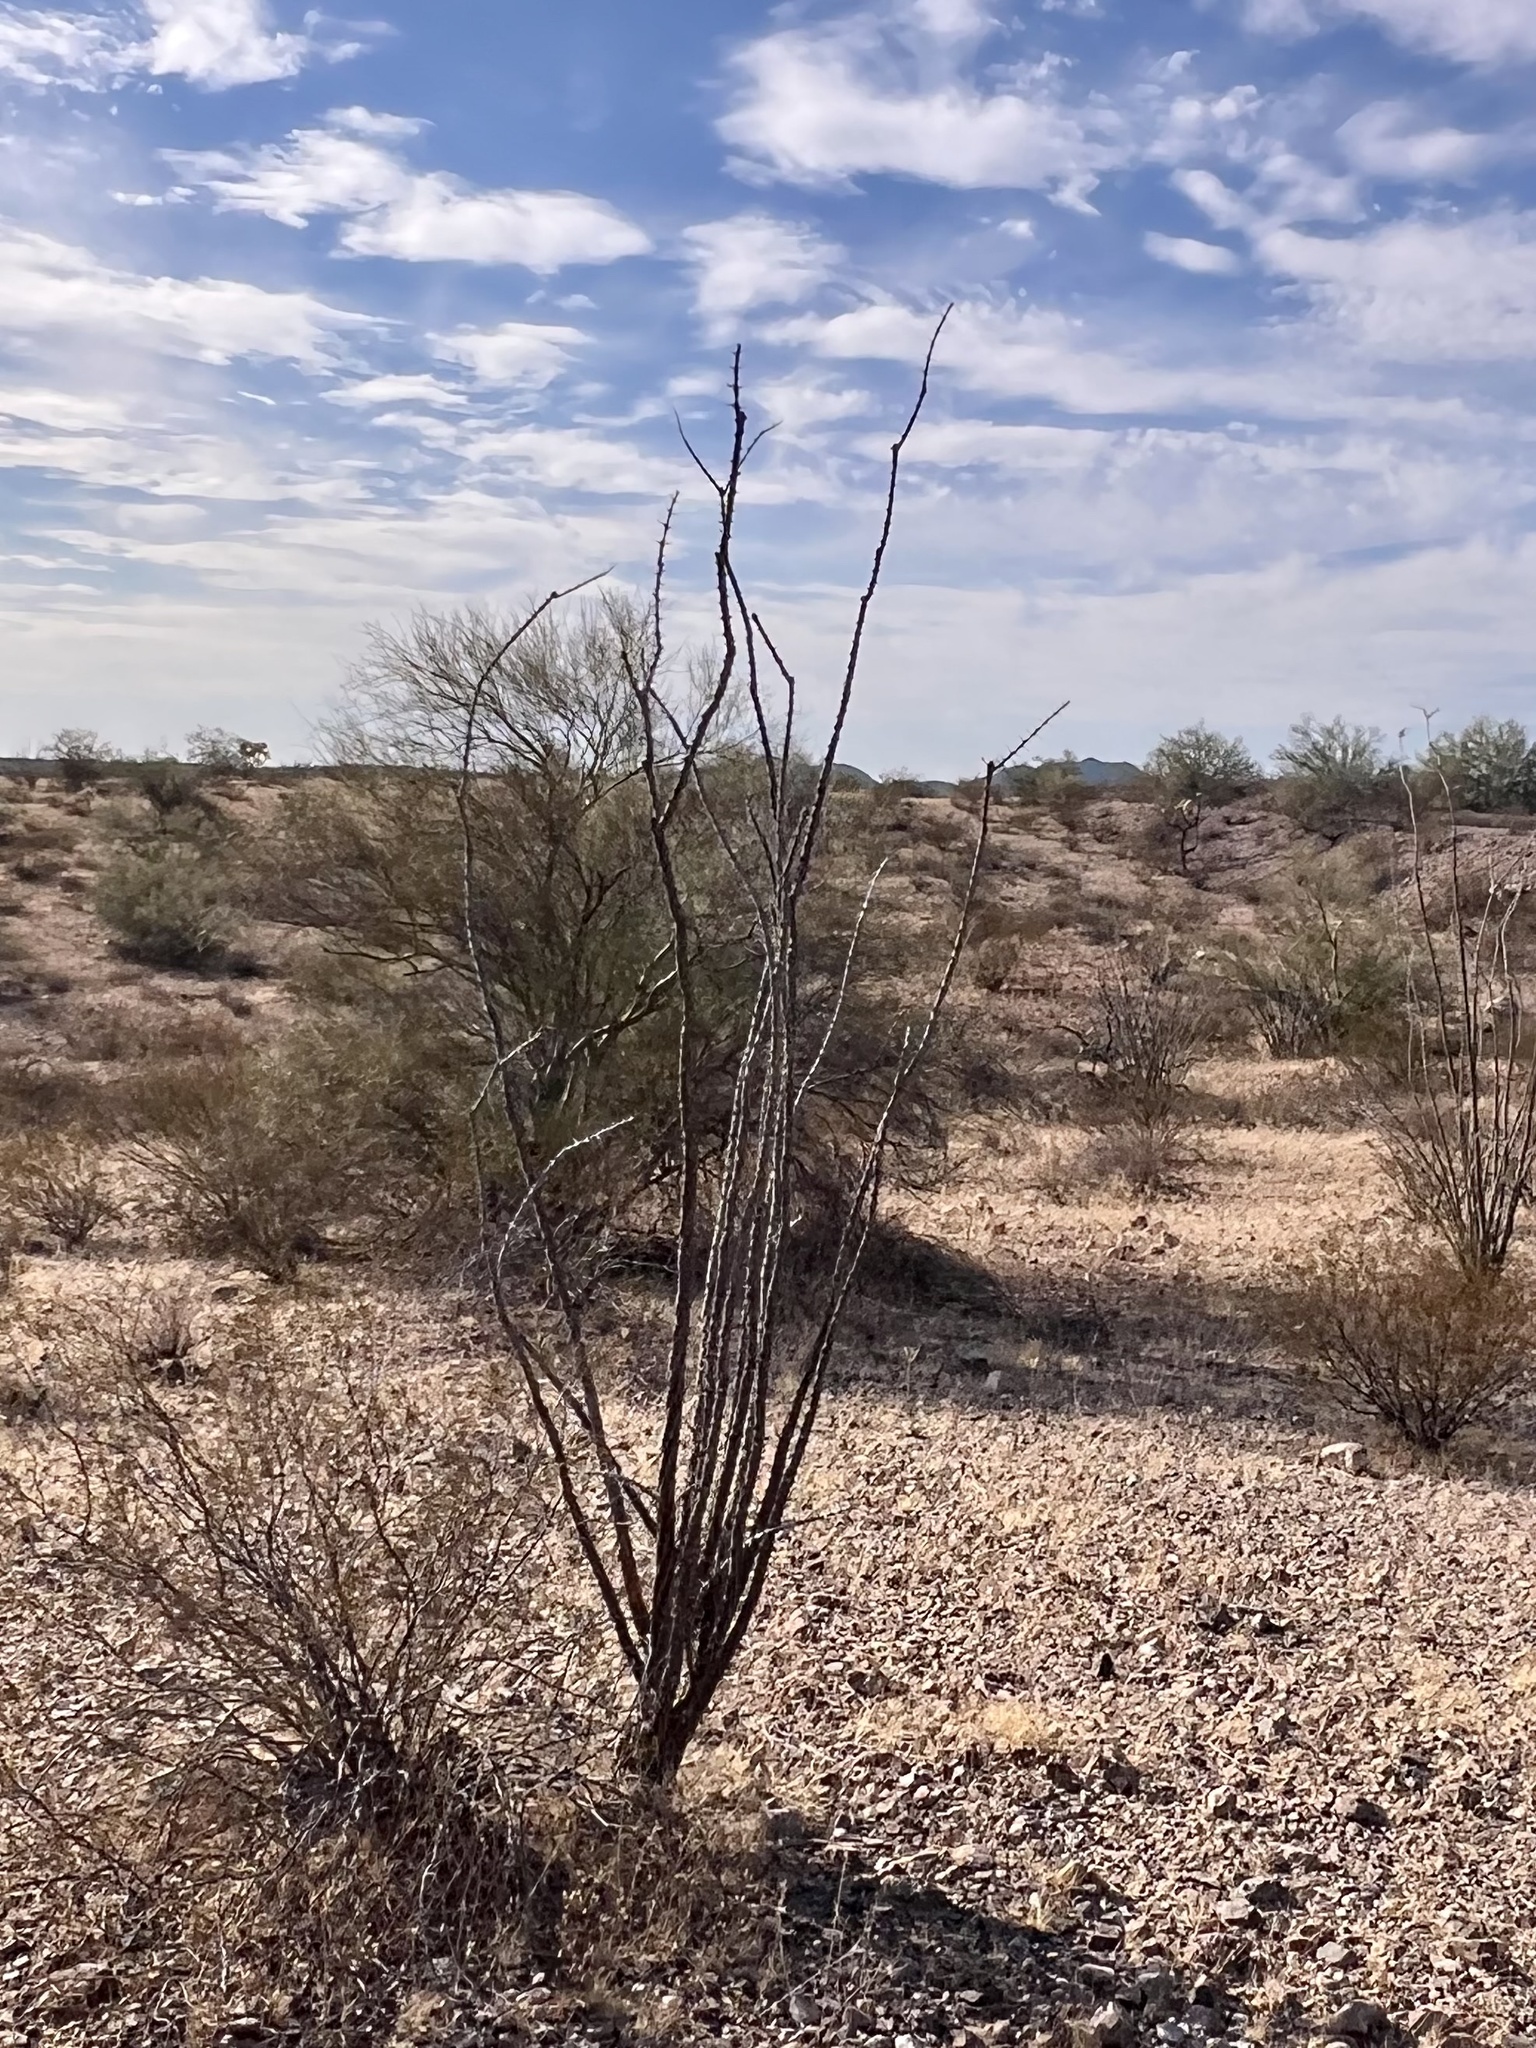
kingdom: Plantae
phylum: Tracheophyta
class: Magnoliopsida
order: Ericales
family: Fouquieriaceae
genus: Fouquieria
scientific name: Fouquieria splendens
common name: Vine-cactus
